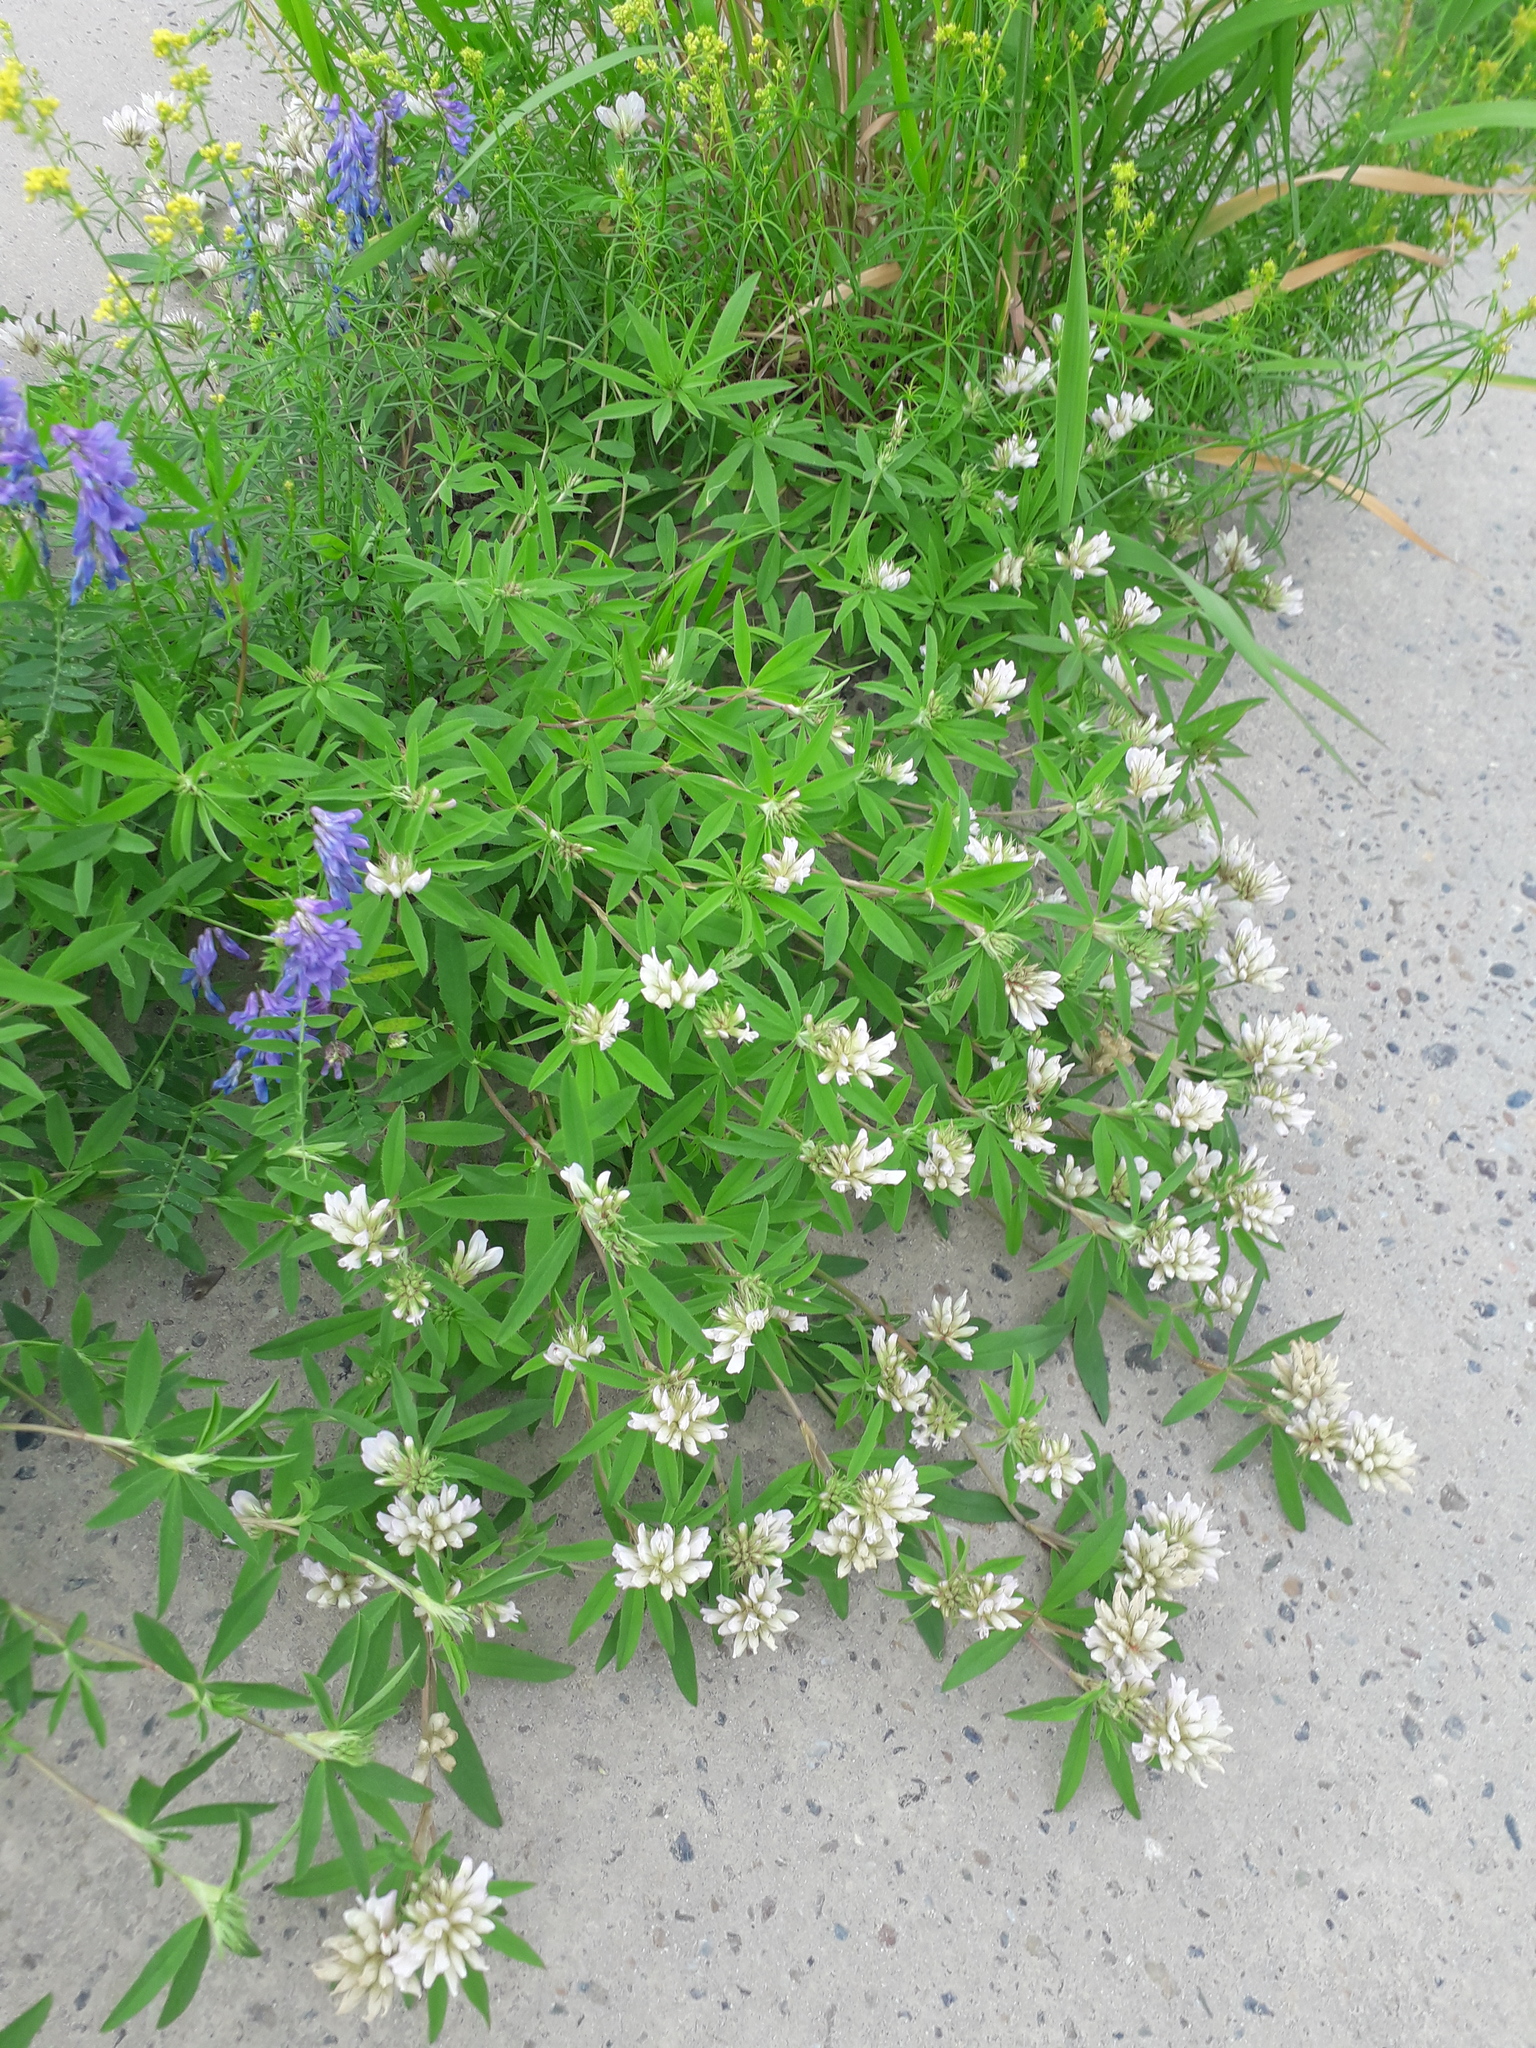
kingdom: Plantae
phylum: Tracheophyta
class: Magnoliopsida
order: Fabales
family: Fabaceae
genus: Trifolium
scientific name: Trifolium lupinaster
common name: Lupine clover
